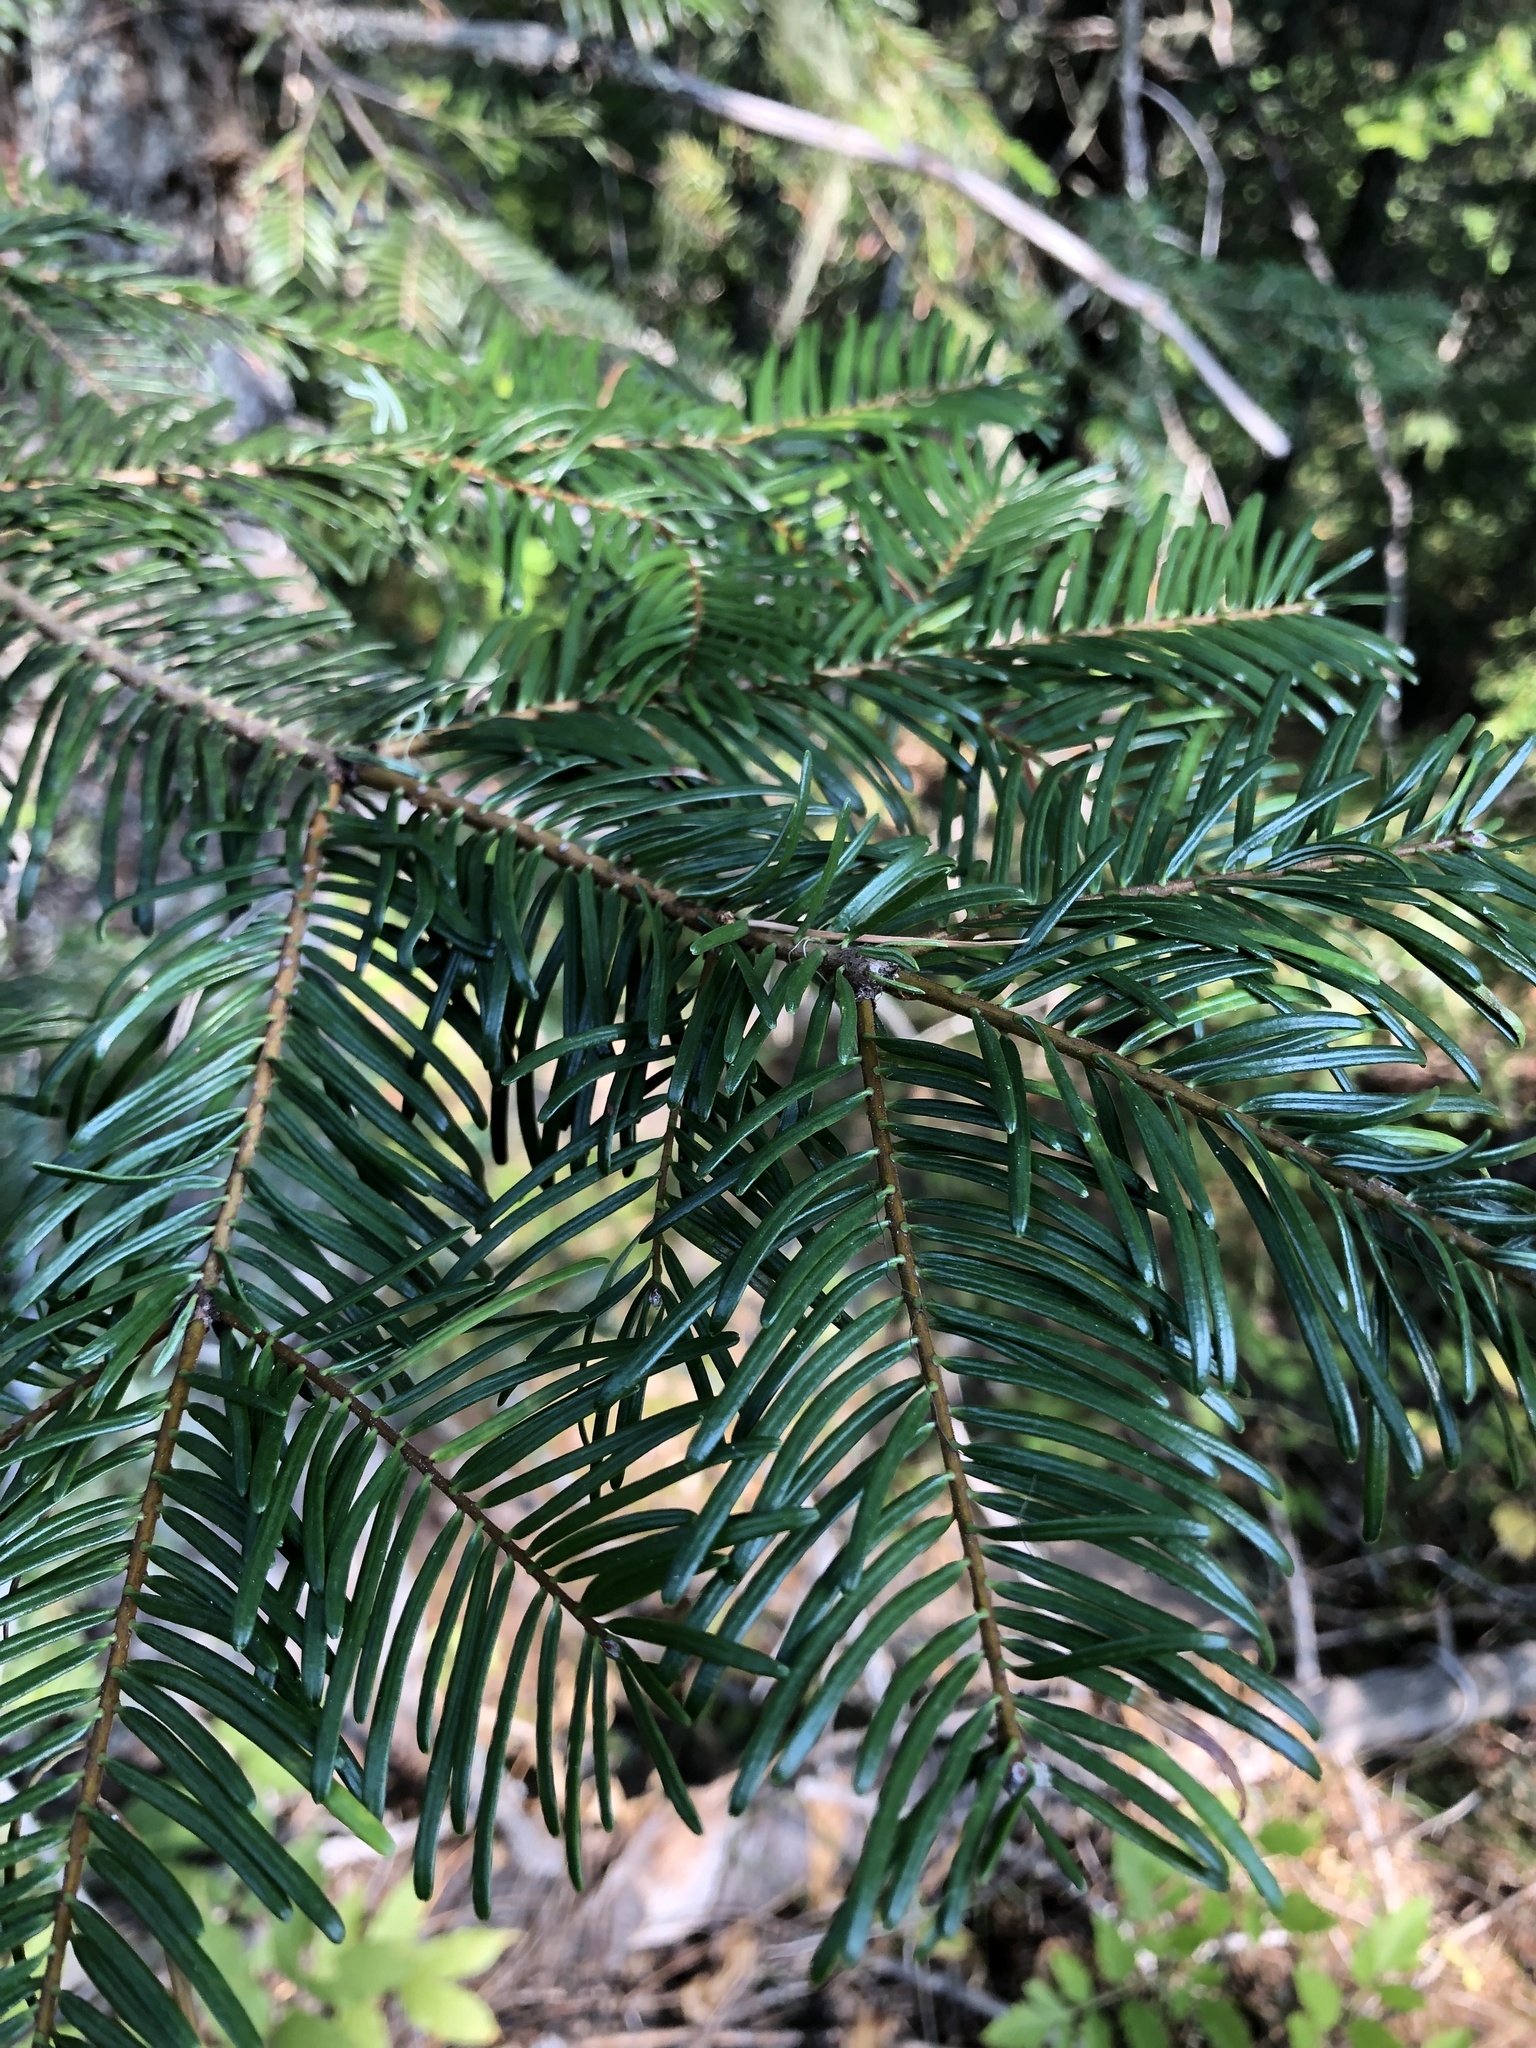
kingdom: Plantae
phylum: Tracheophyta
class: Pinopsida
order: Pinales
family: Pinaceae
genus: Abies
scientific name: Abies grandis
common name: Giant fir
